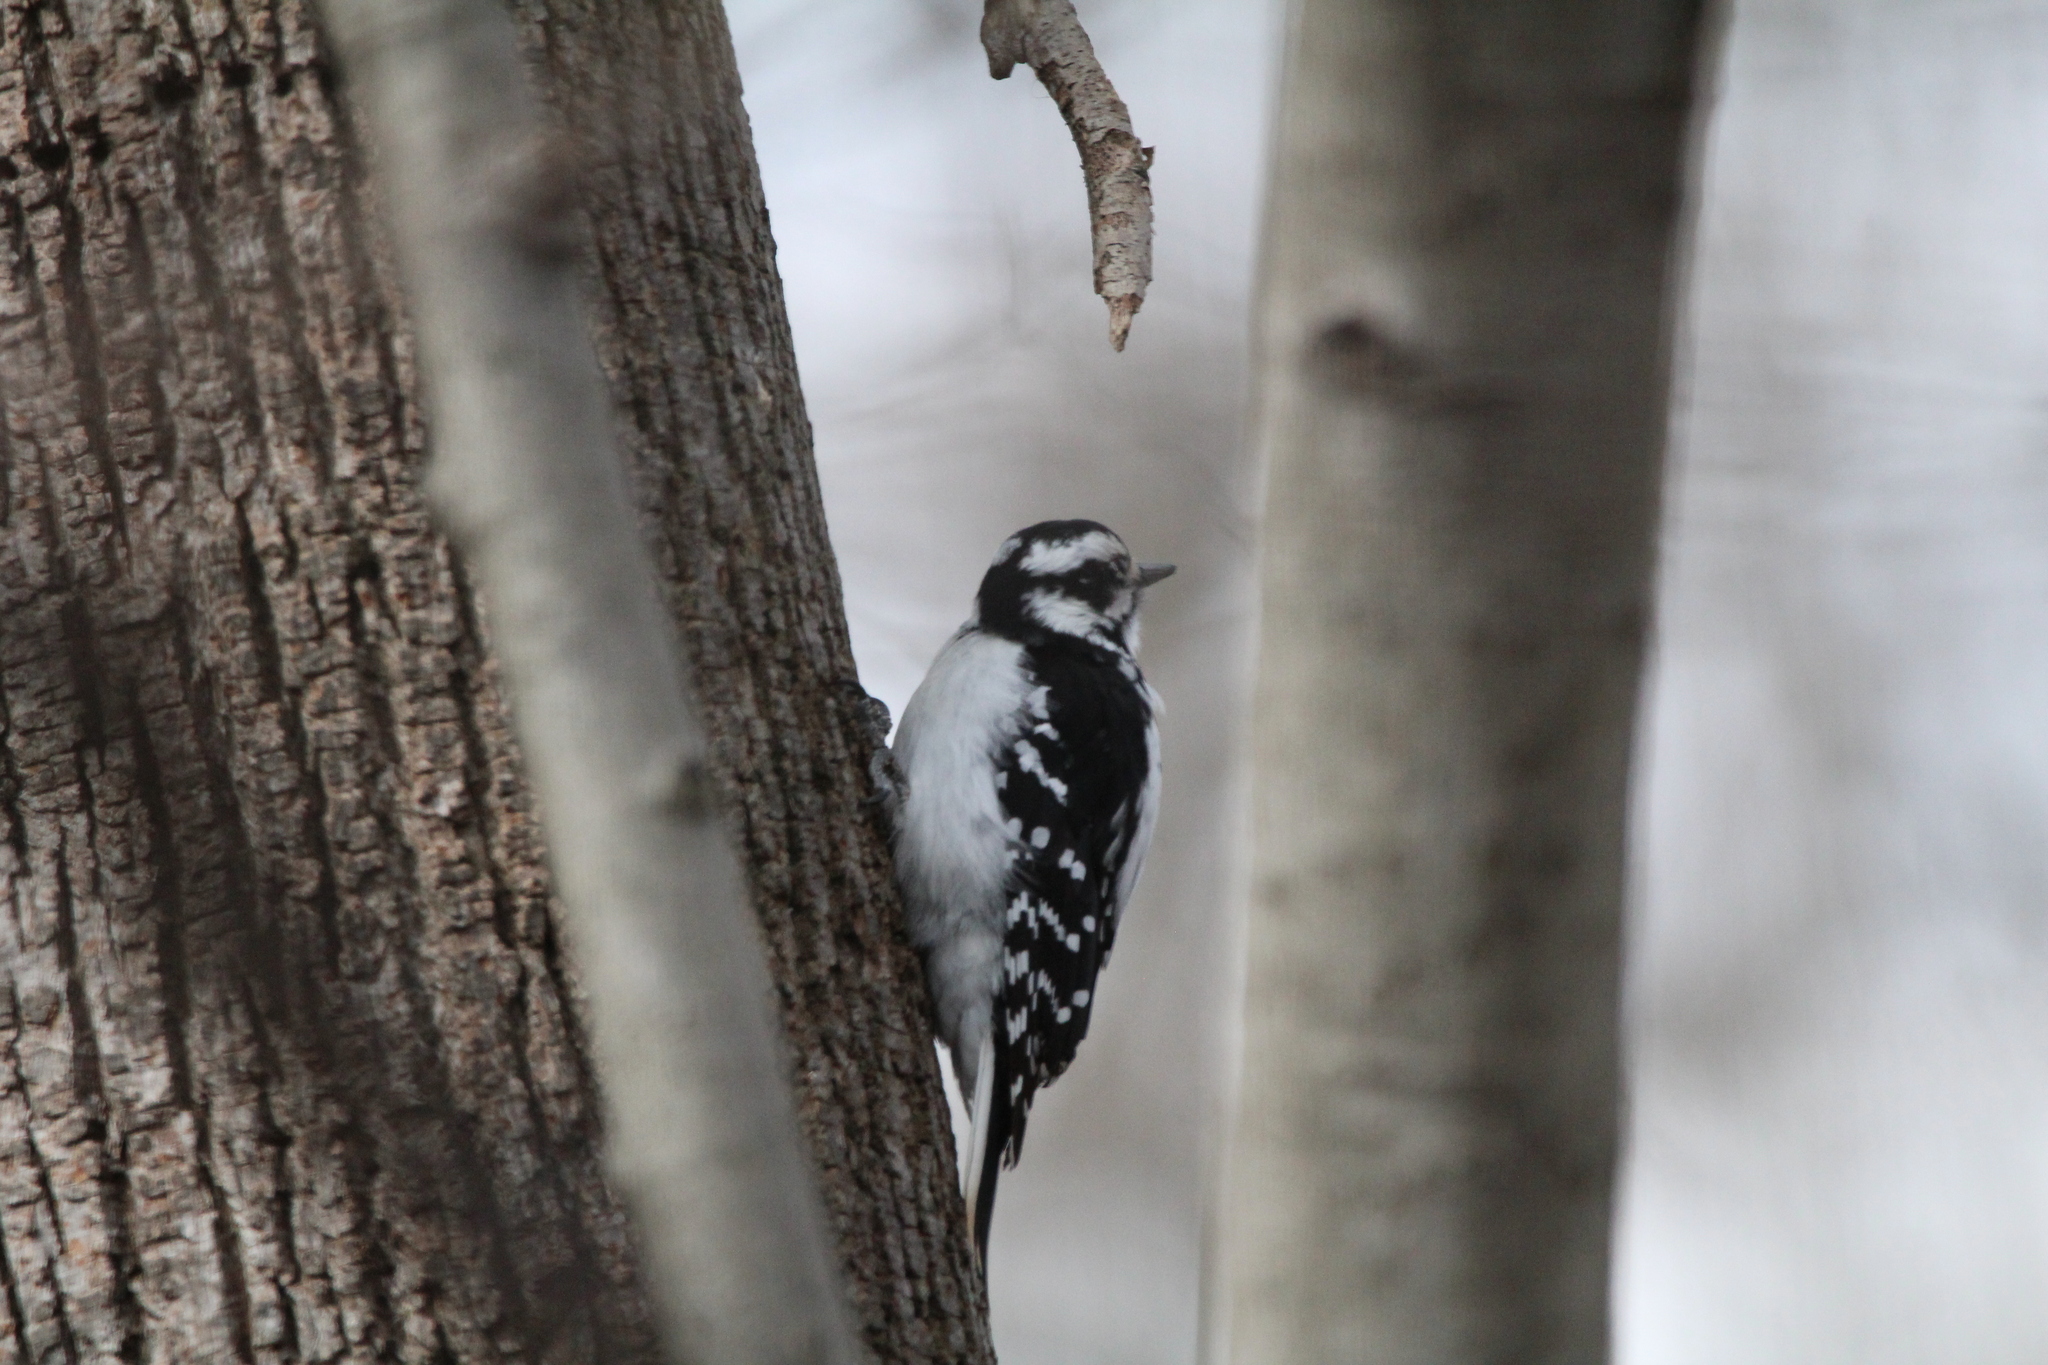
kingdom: Animalia
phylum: Chordata
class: Aves
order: Piciformes
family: Picidae
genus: Leuconotopicus
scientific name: Leuconotopicus villosus
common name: Hairy woodpecker
